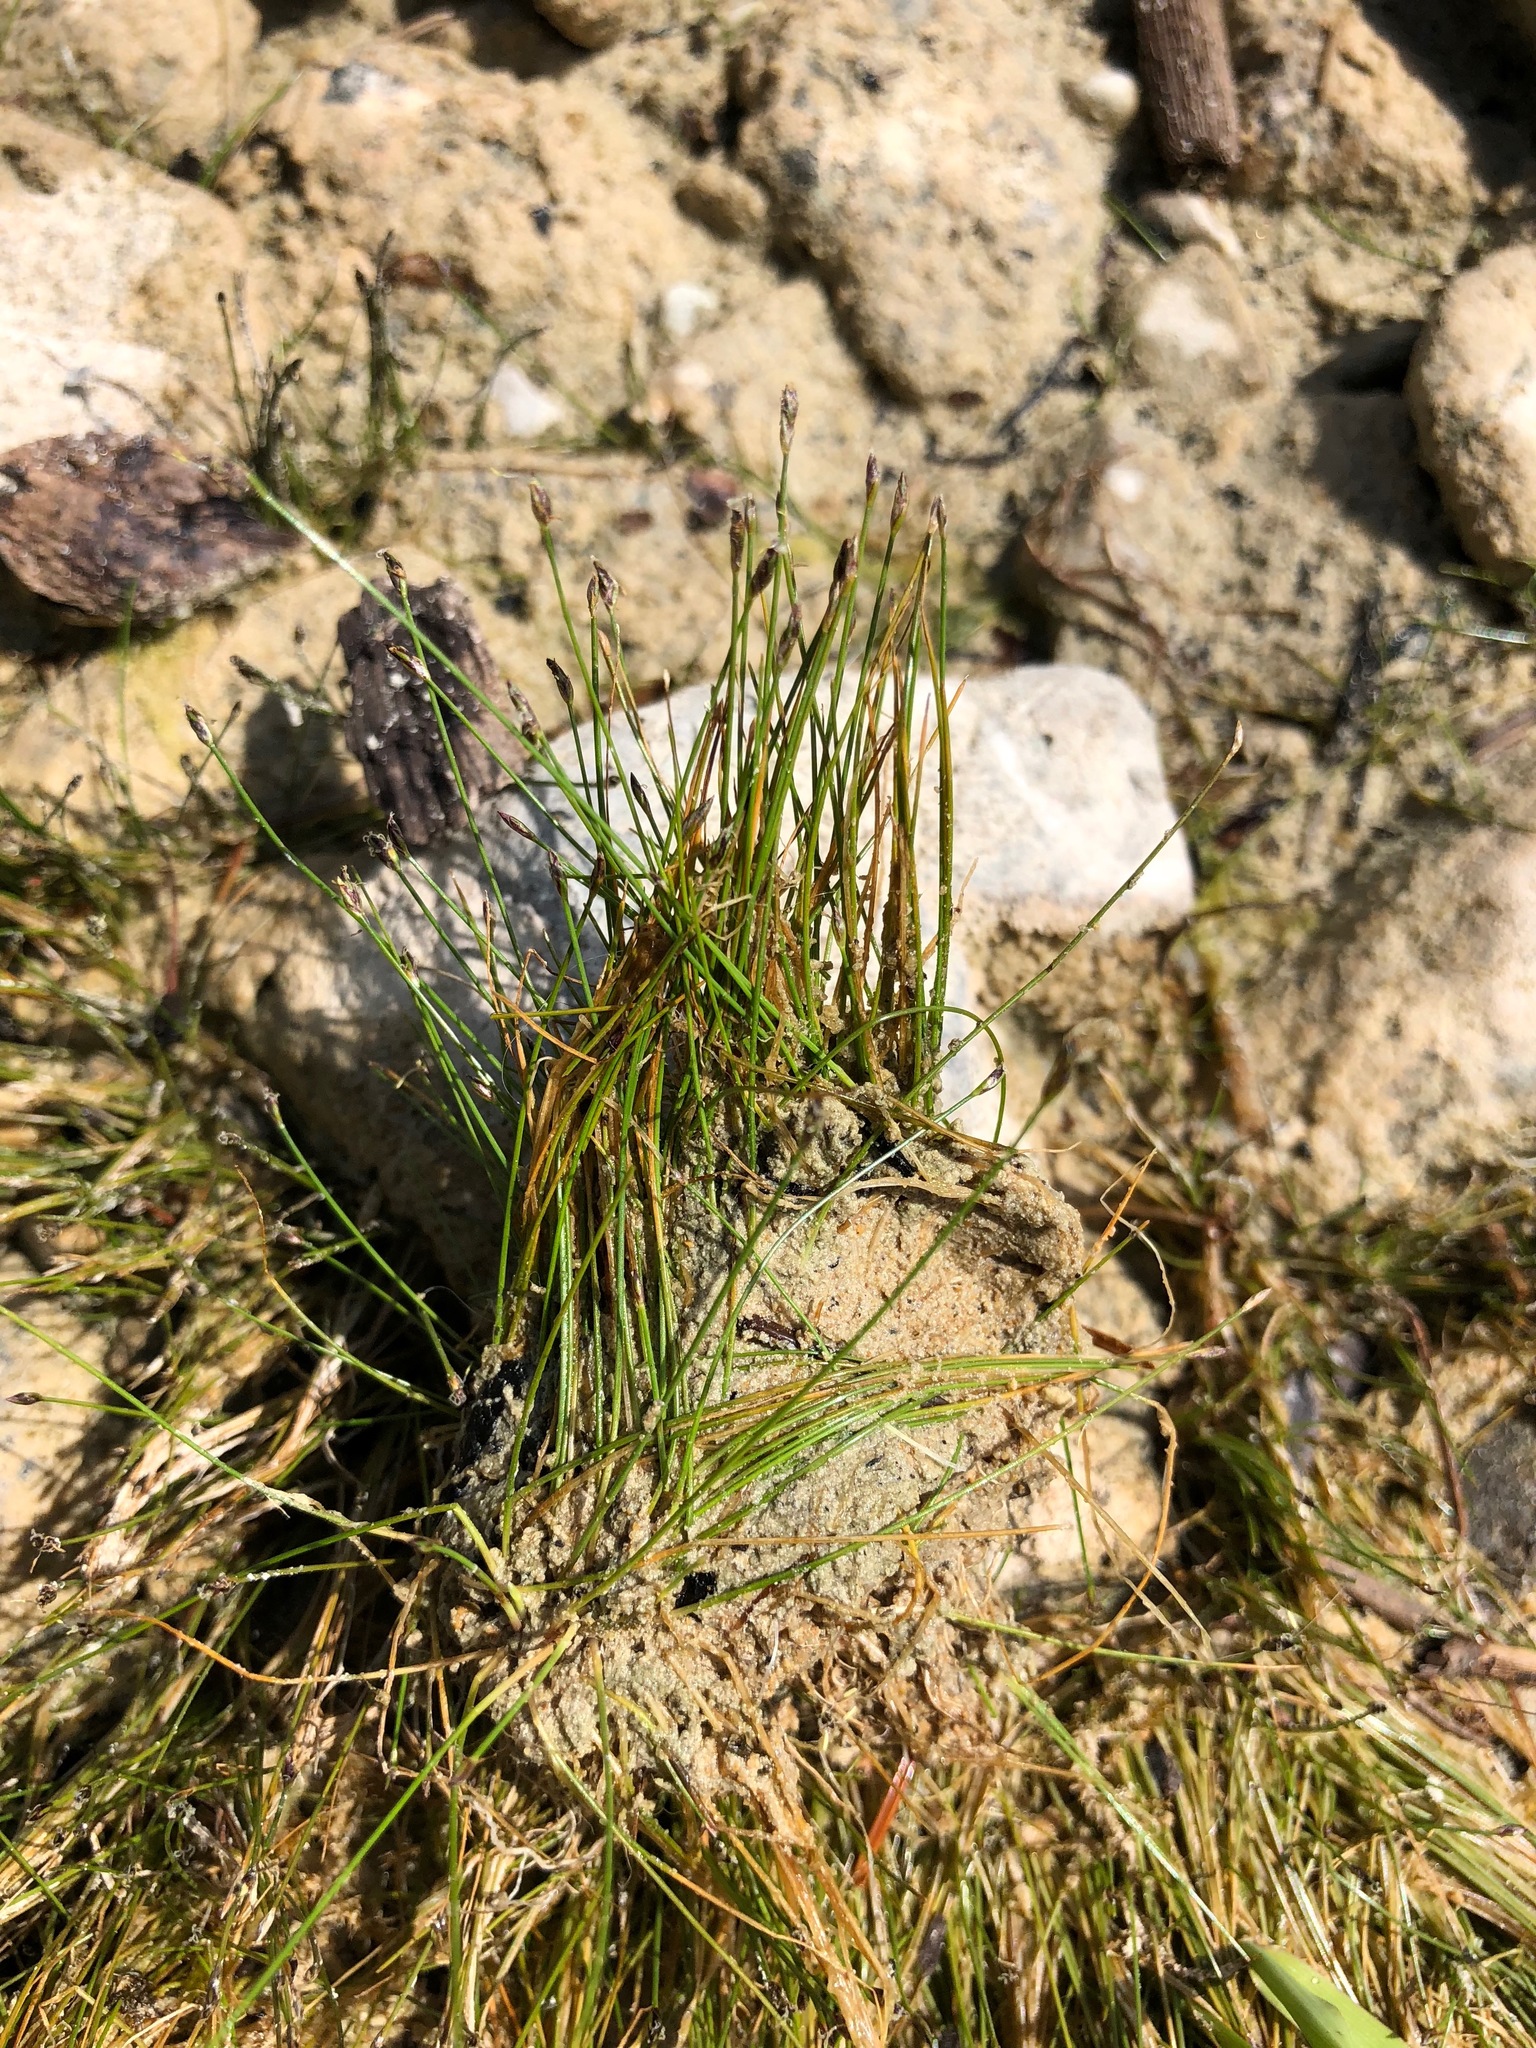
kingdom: Plantae
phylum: Tracheophyta
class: Liliopsida
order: Poales
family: Cyperaceae
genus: Eleocharis
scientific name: Eleocharis acicularis
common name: Needle spike-rush
